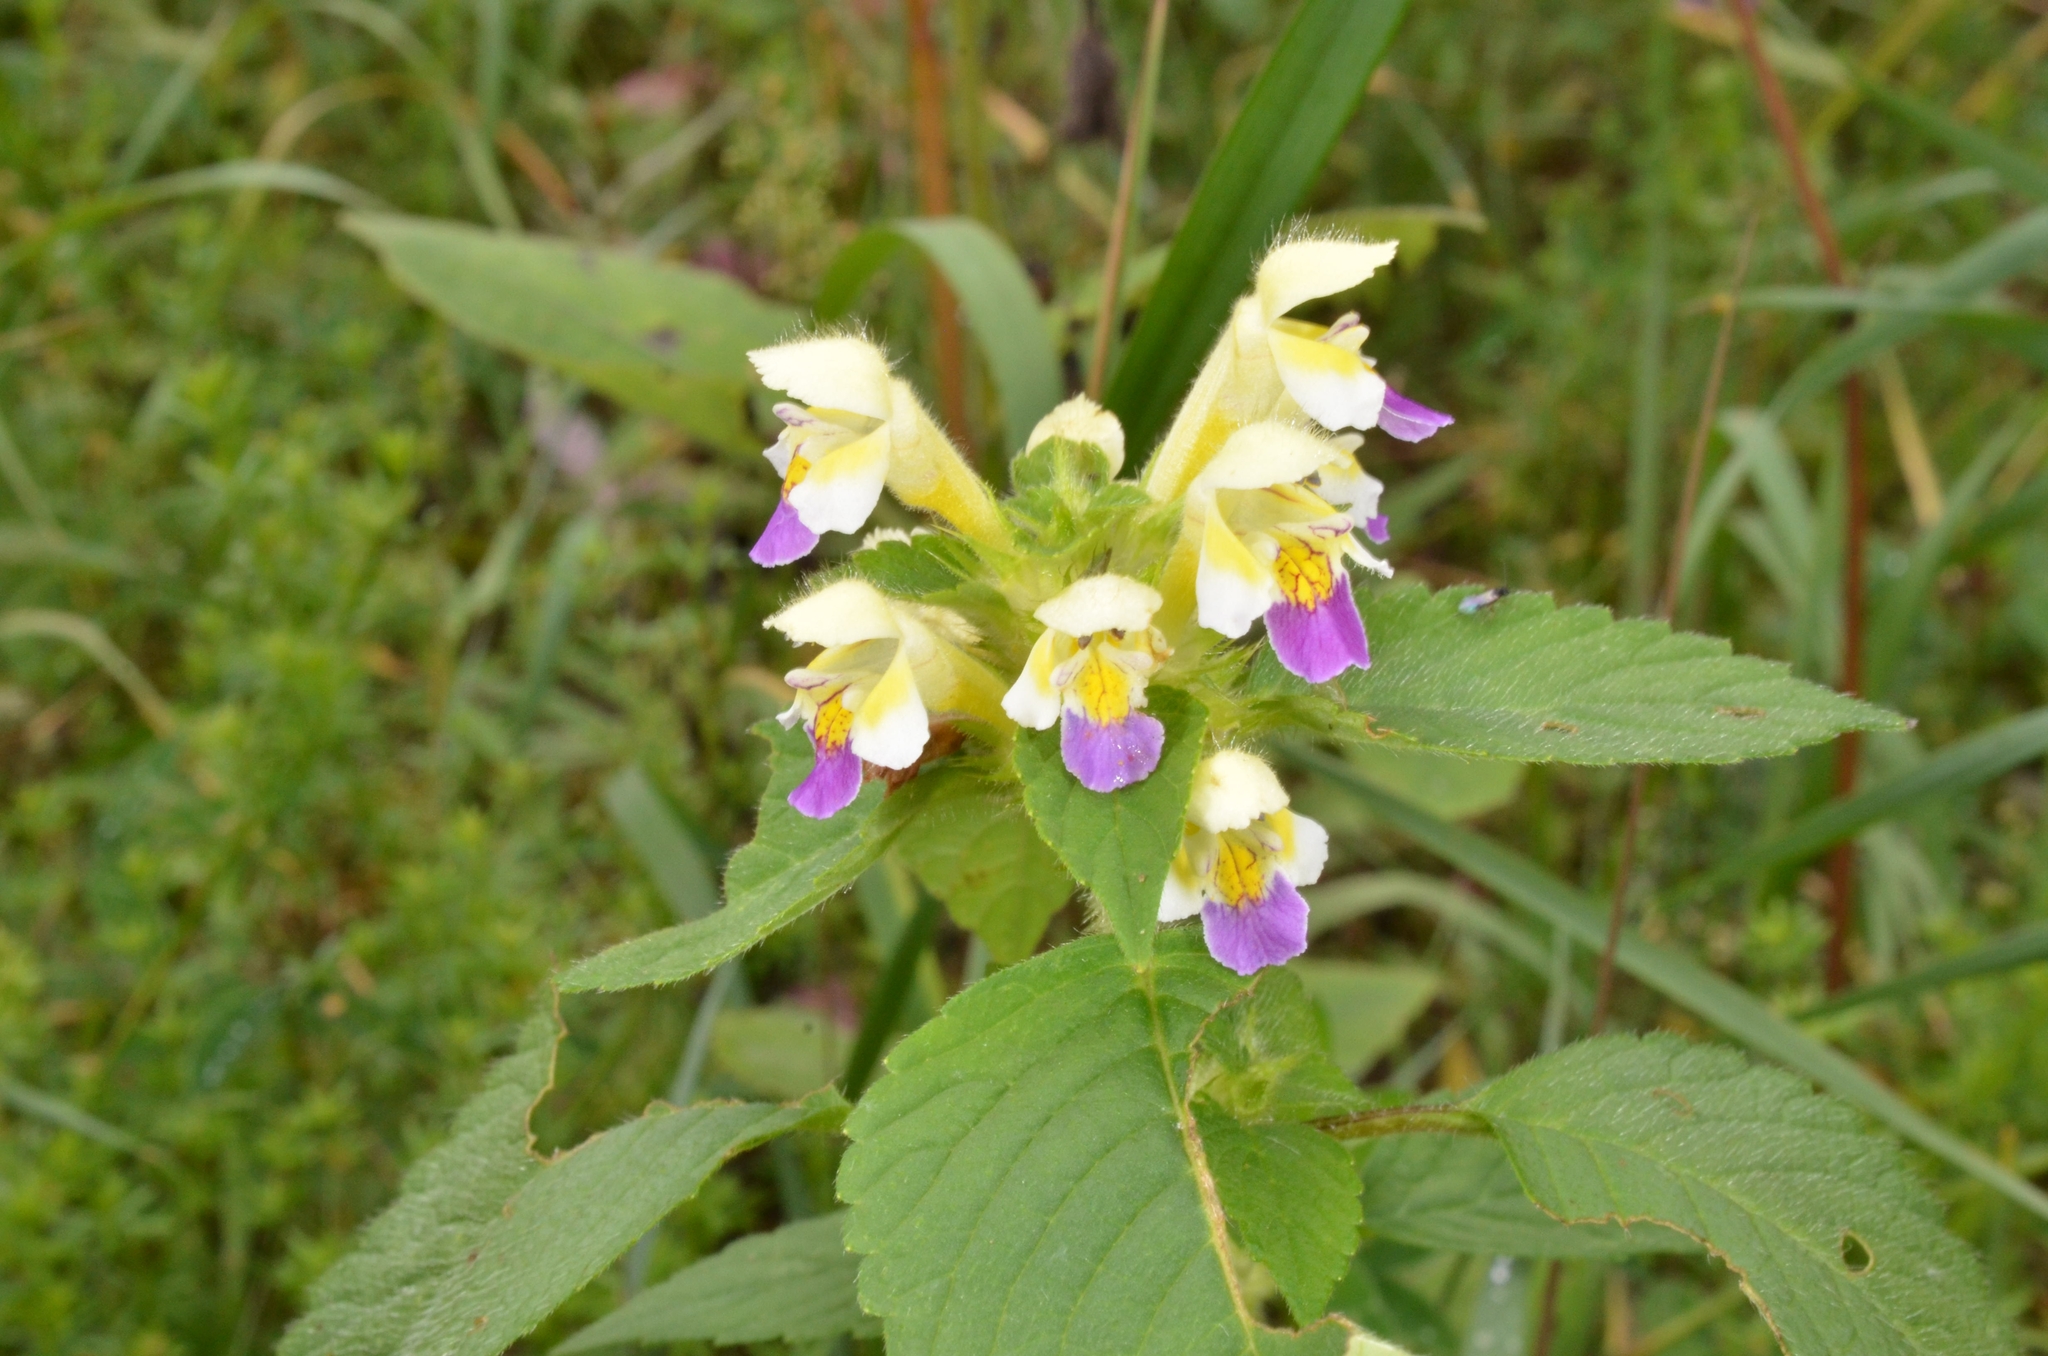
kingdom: Plantae
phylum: Tracheophyta
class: Magnoliopsida
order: Lamiales
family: Lamiaceae
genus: Galeopsis
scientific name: Galeopsis speciosa
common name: Large-flowered hemp-nettle
